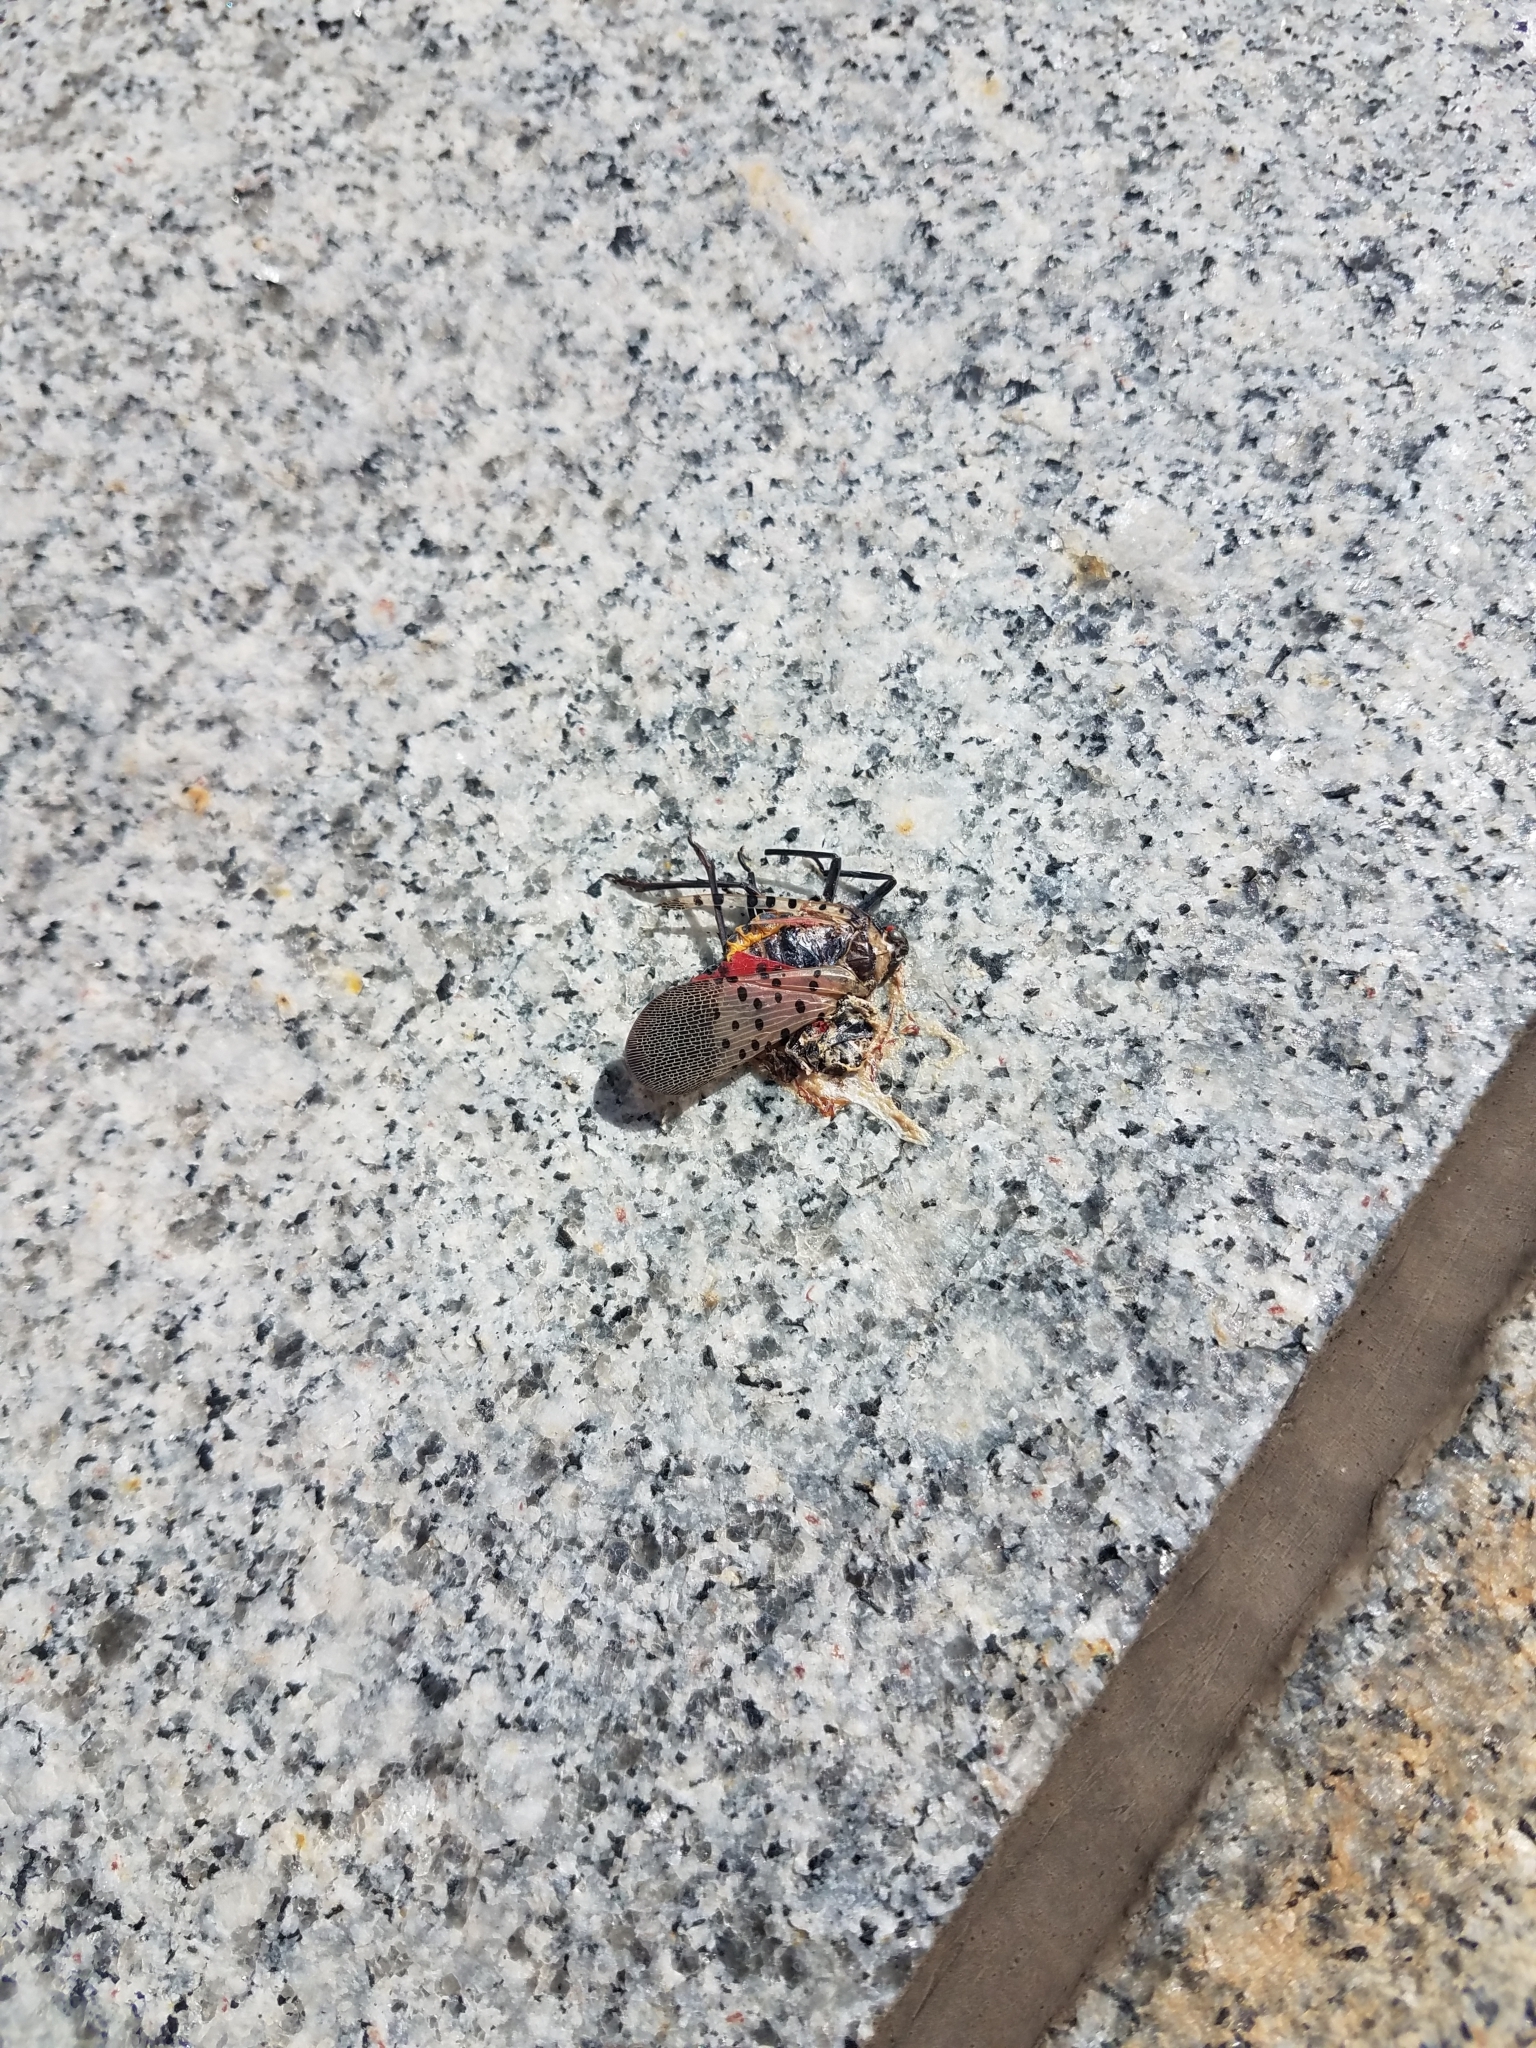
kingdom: Animalia
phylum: Arthropoda
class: Insecta
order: Hemiptera
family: Fulgoridae
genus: Lycorma
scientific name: Lycorma delicatula
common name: Spotted lanternfly
